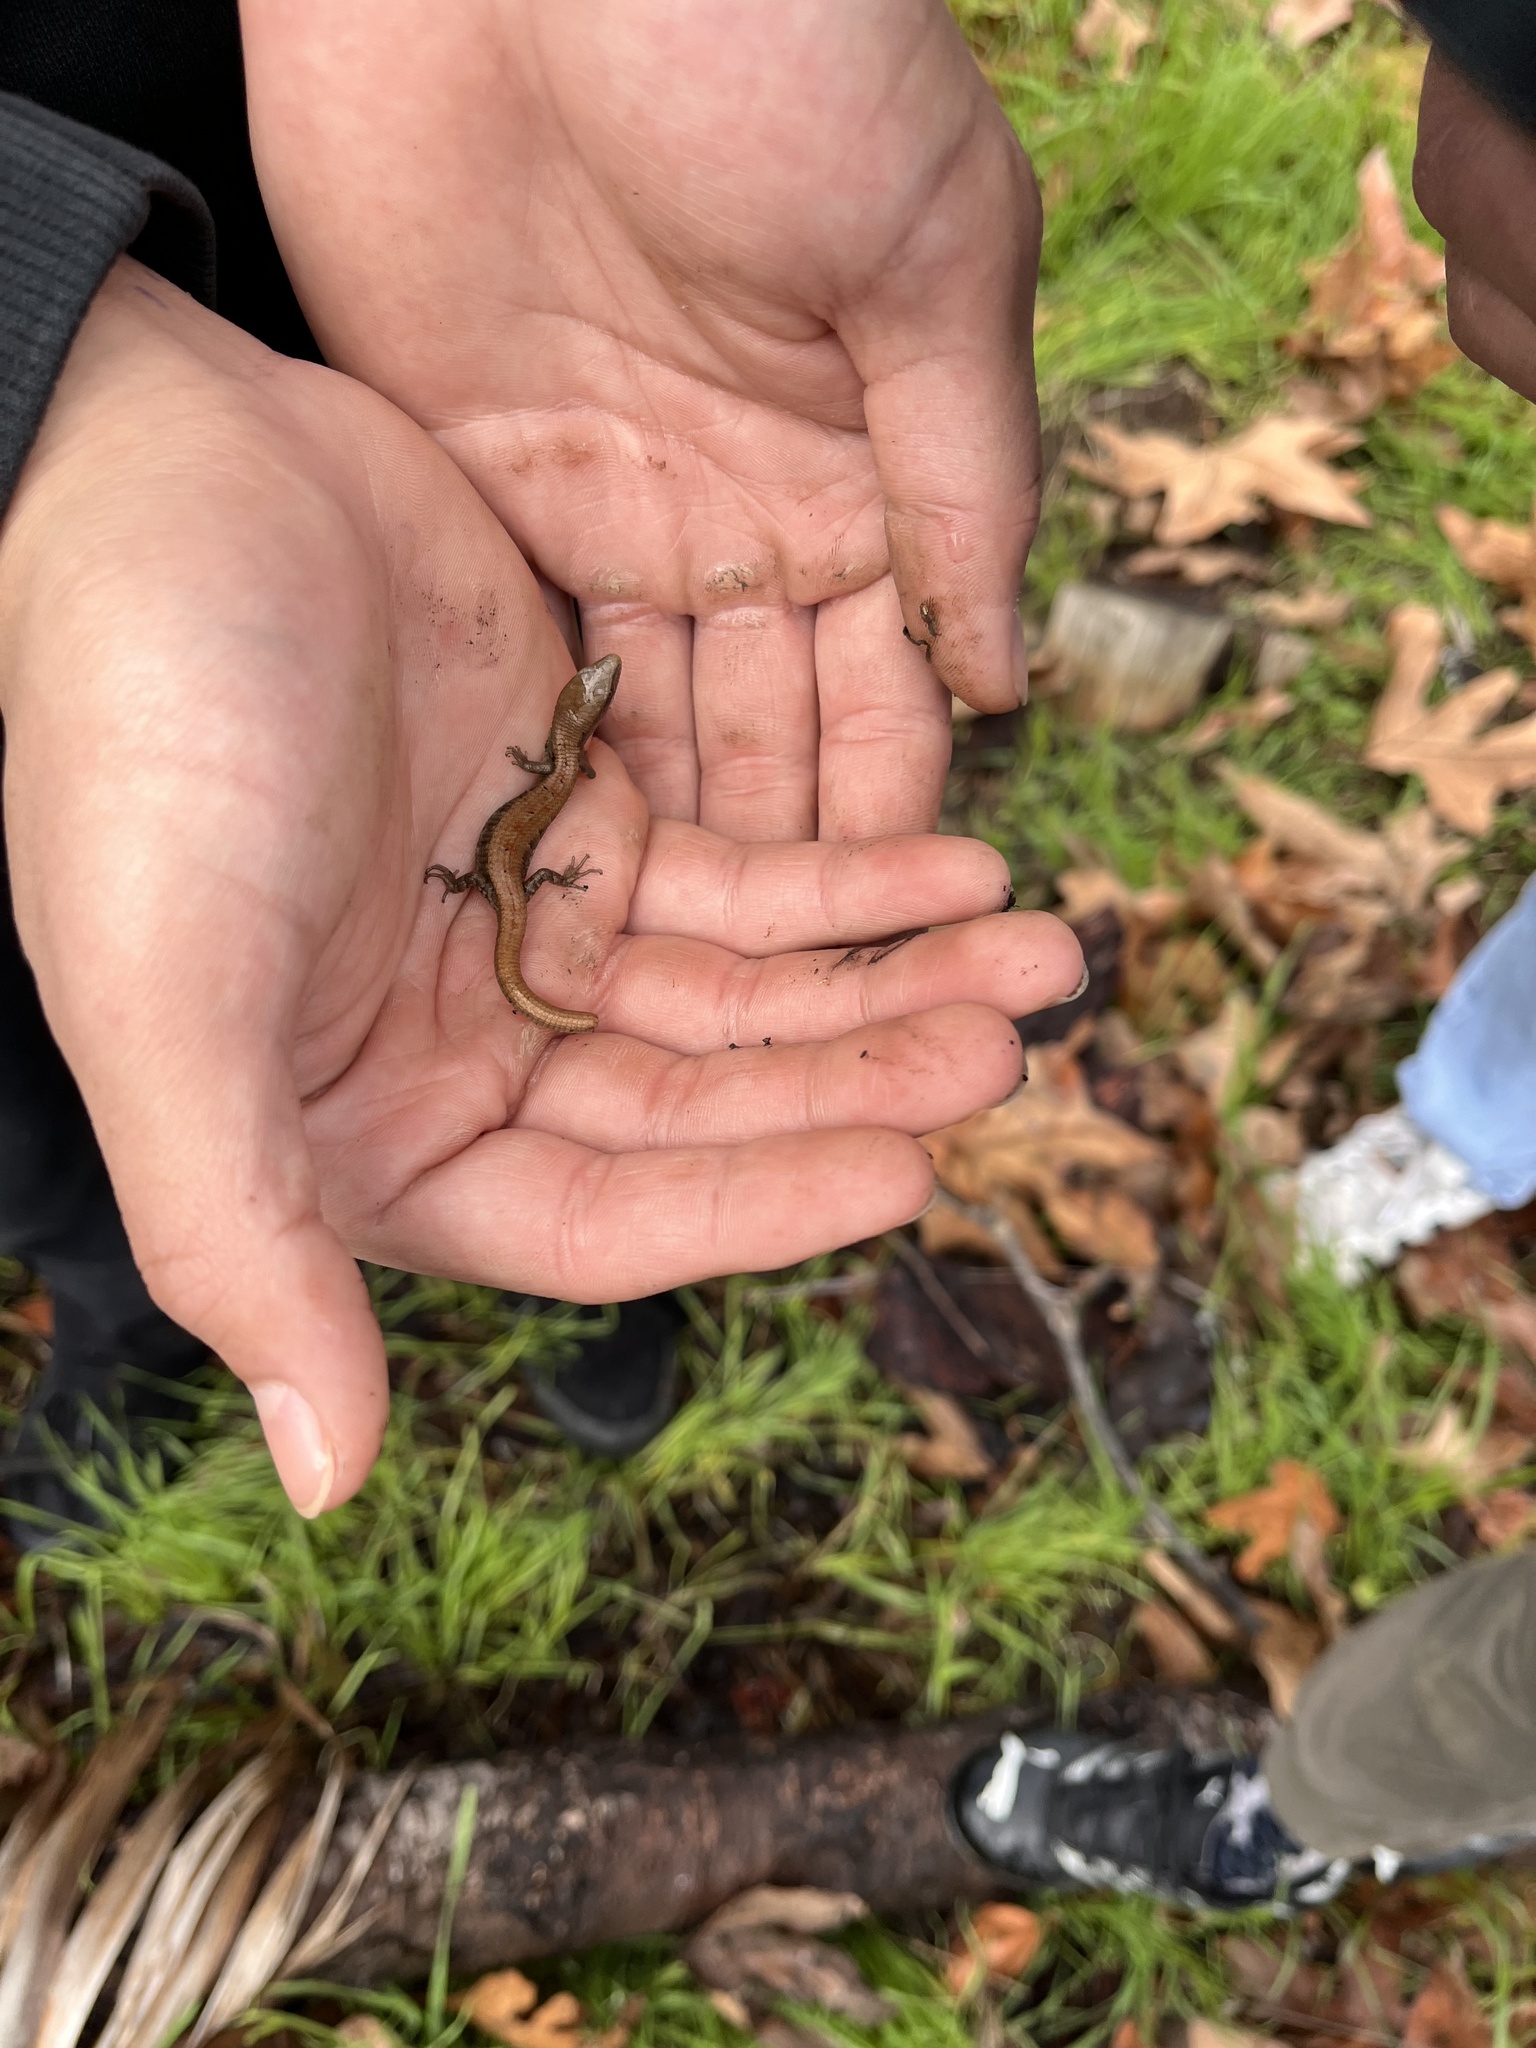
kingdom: Animalia
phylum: Chordata
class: Squamata
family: Anguidae
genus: Elgaria
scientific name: Elgaria multicarinata
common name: Southern alligator lizard
